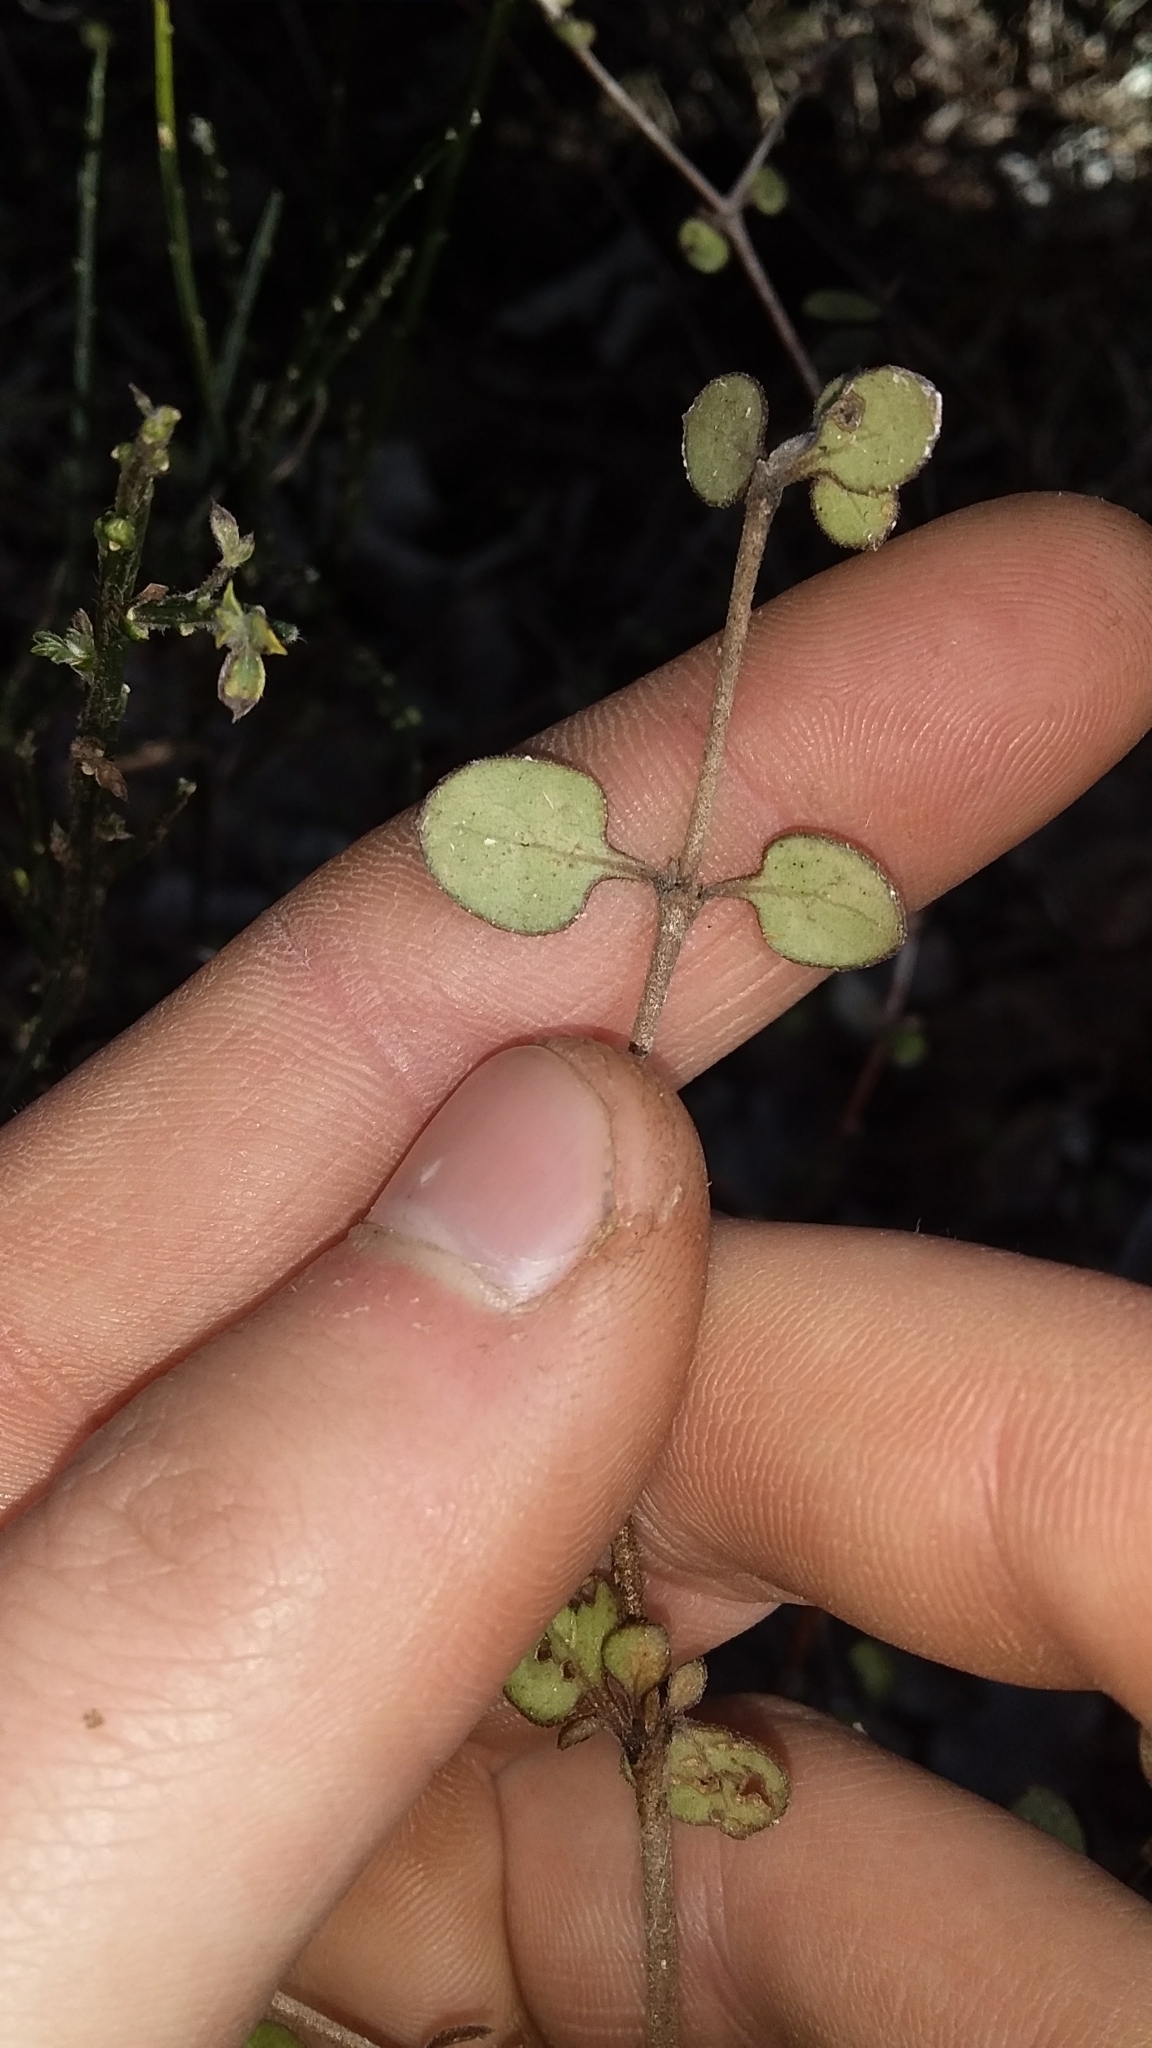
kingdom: Plantae
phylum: Tracheophyta
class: Magnoliopsida
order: Gentianales
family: Rubiaceae
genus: Coprosma
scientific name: Coprosma crassifolia
